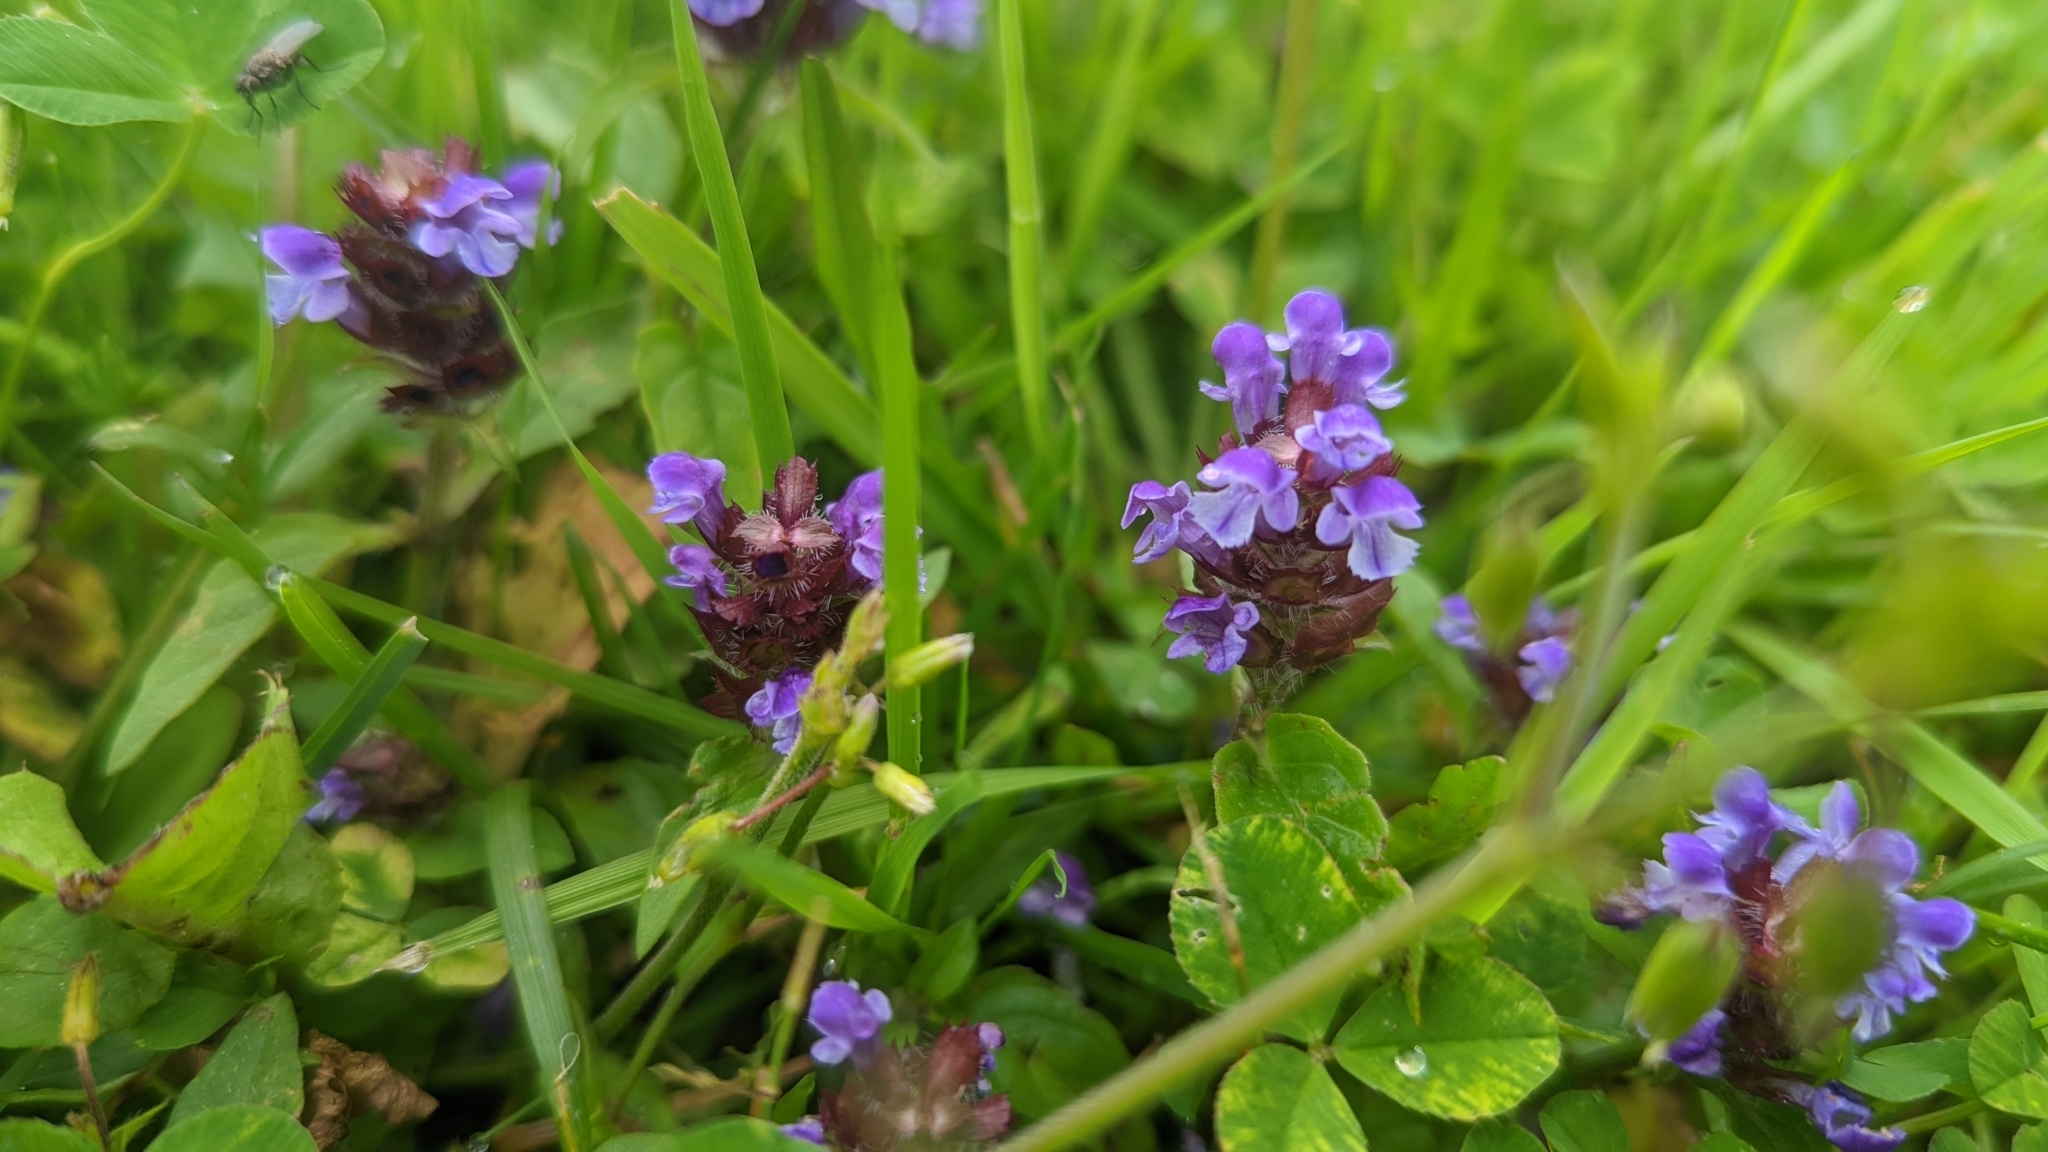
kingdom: Plantae
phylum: Tracheophyta
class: Magnoliopsida
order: Lamiales
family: Lamiaceae
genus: Prunella
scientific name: Prunella vulgaris
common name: Heal-all
